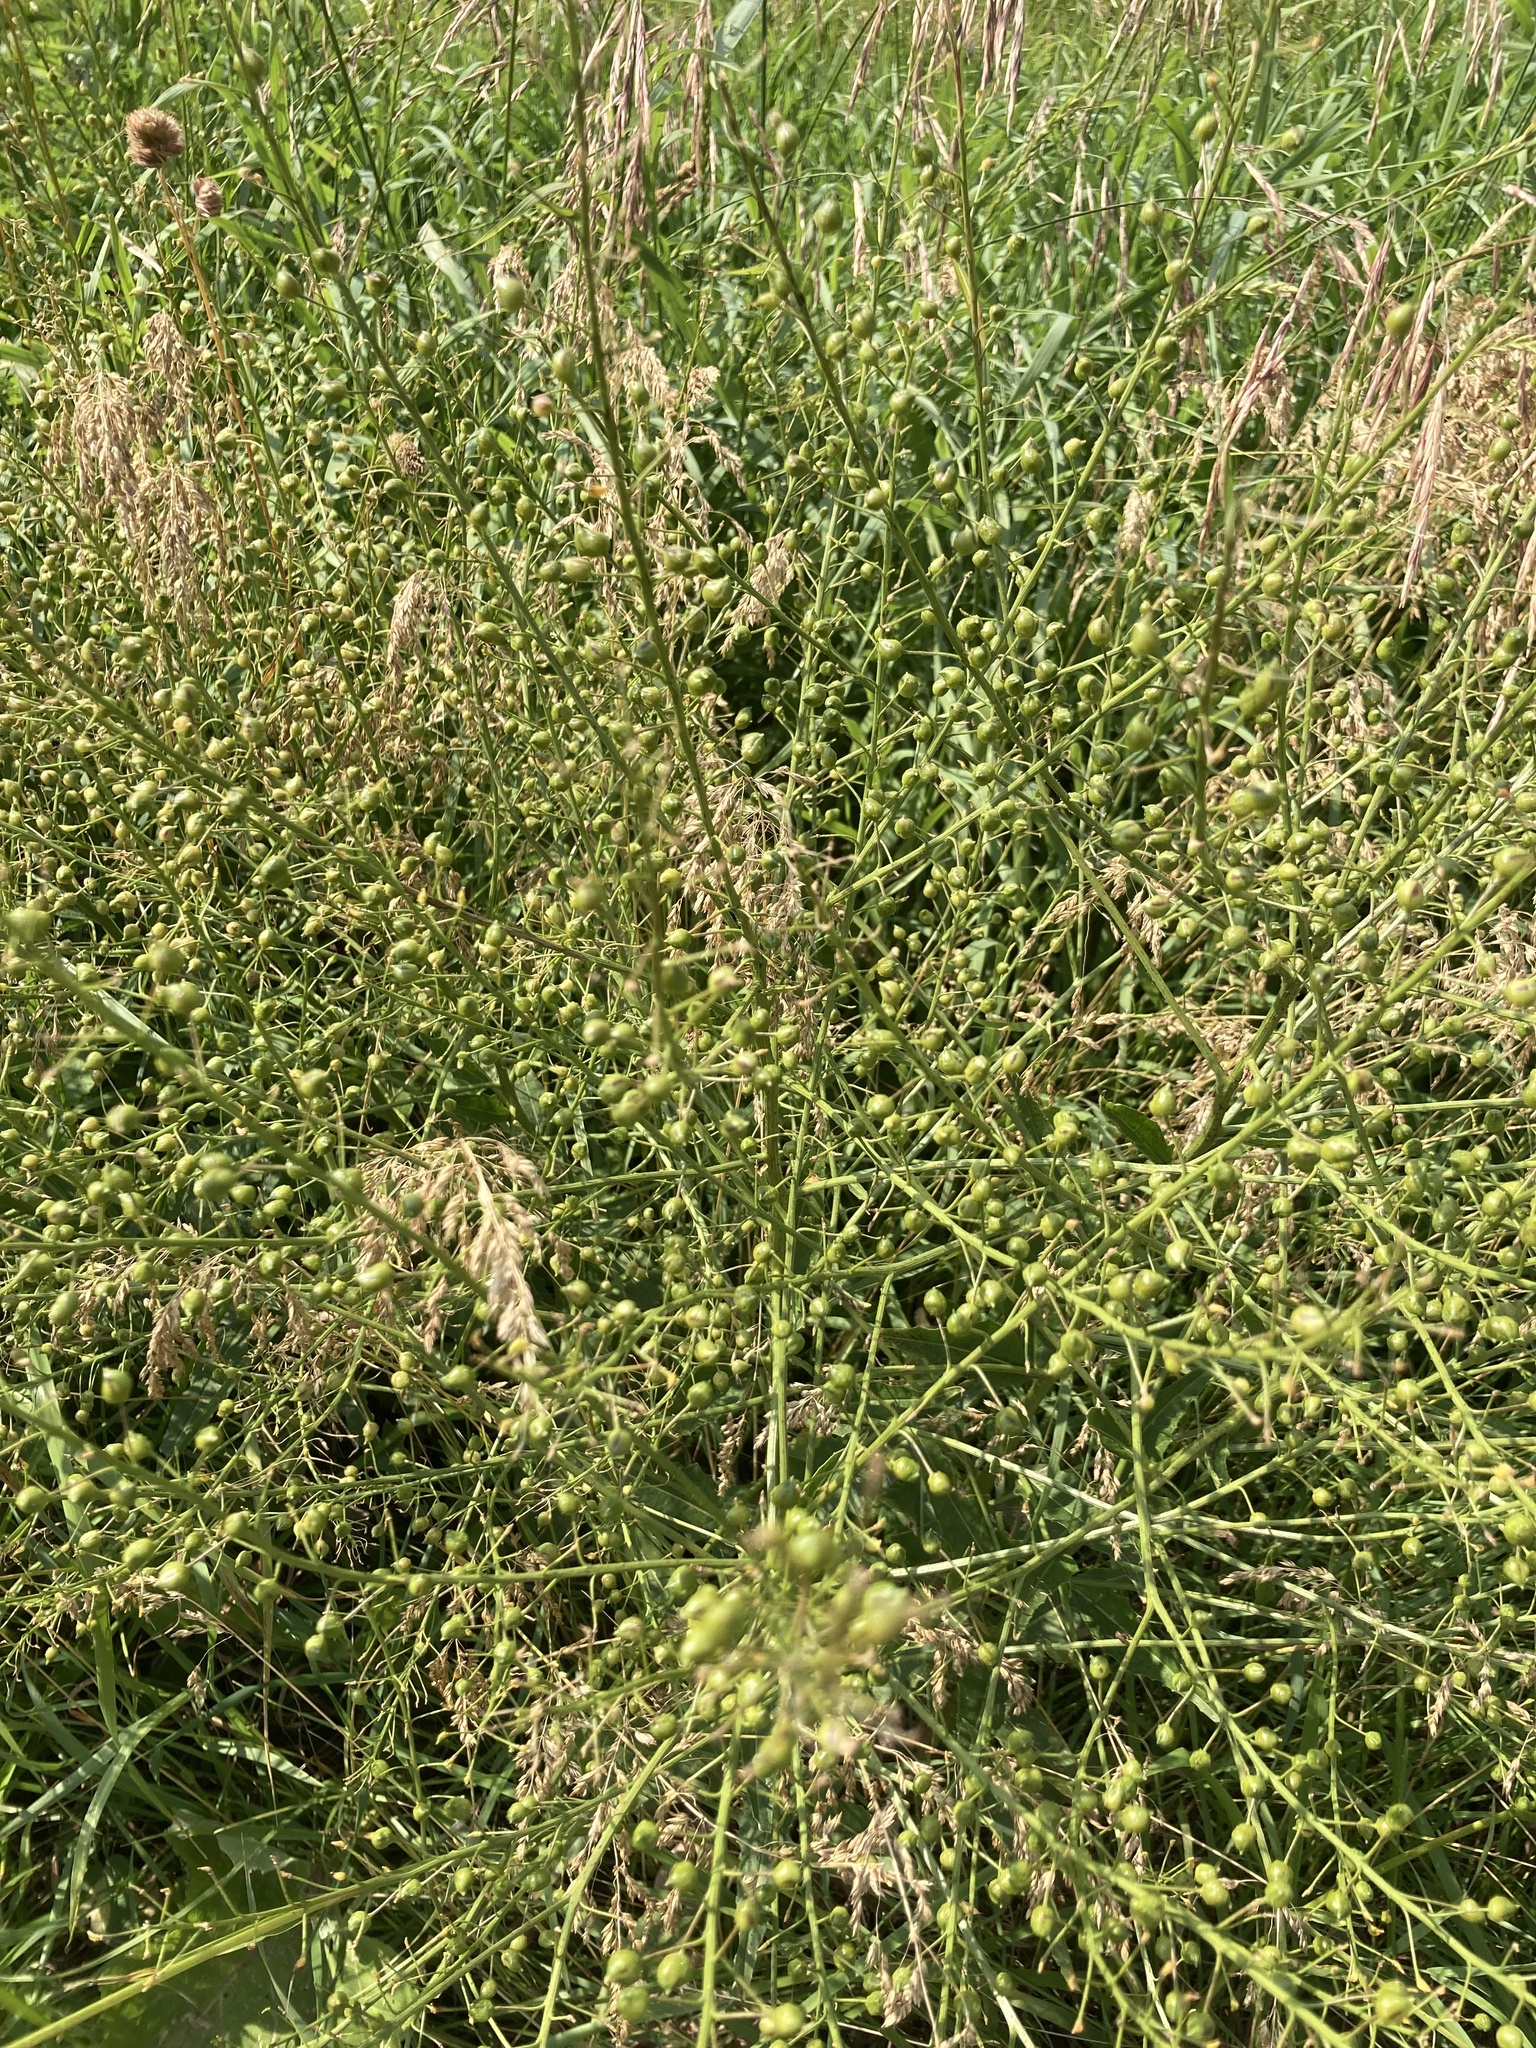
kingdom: Plantae
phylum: Tracheophyta
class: Magnoliopsida
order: Brassicales
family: Brassicaceae
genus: Bunias
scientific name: Bunias orientalis
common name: Warty-cabbage
